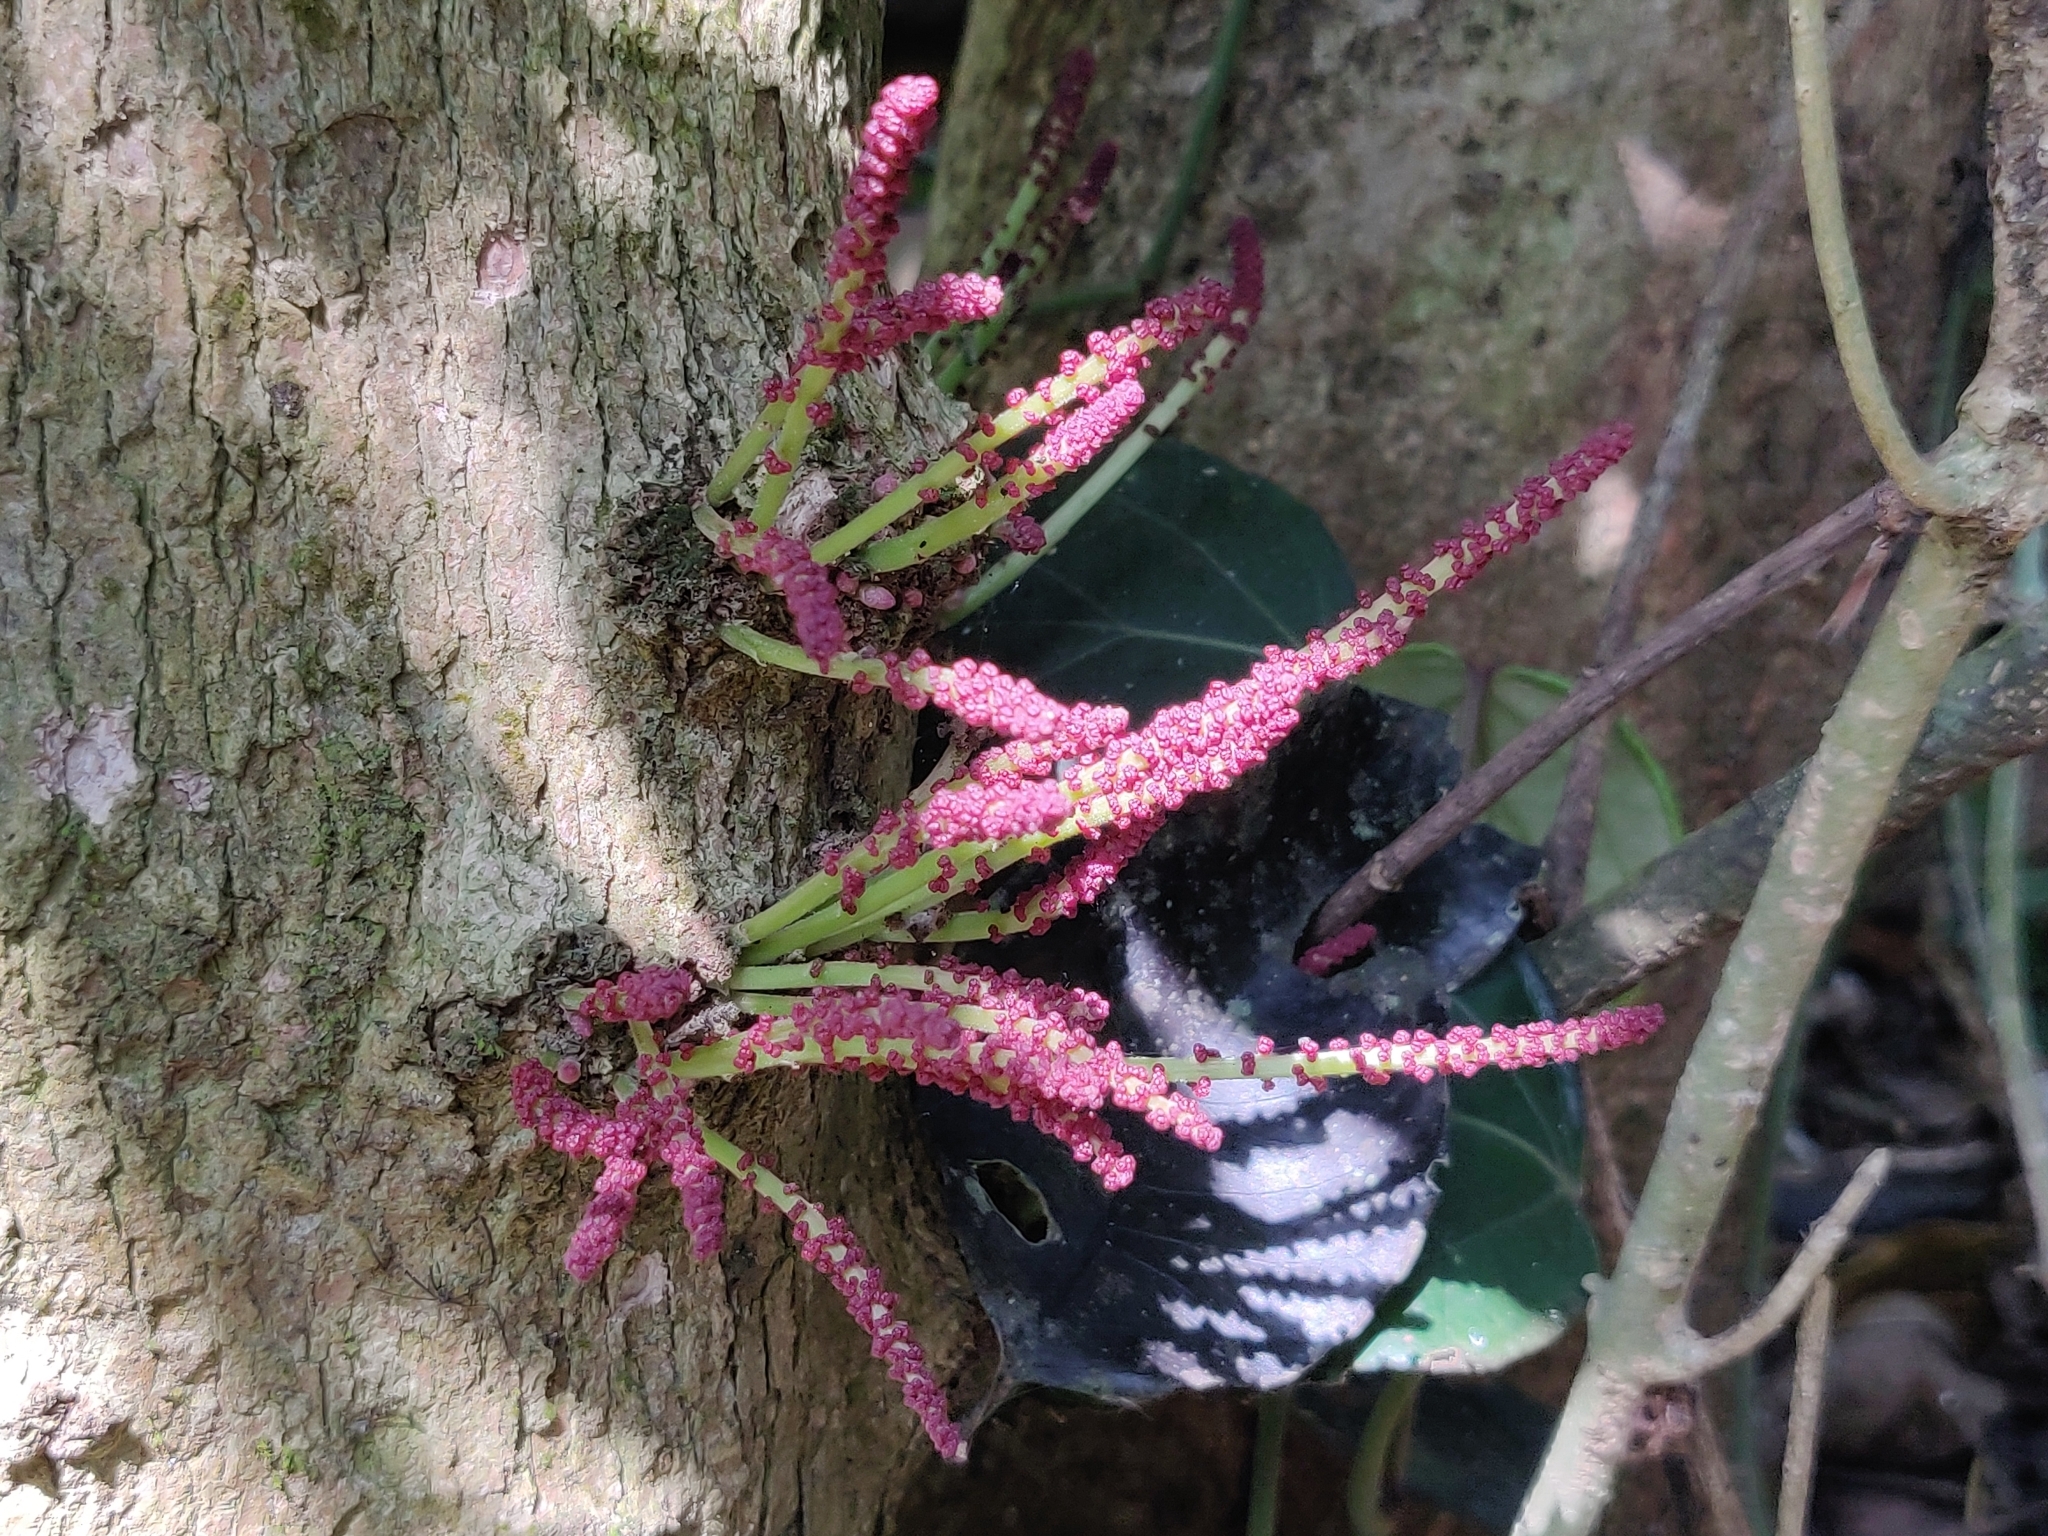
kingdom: Plantae
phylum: Tracheophyta
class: Magnoliopsida
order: Malpighiales
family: Phyllanthaceae
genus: Baccaurea
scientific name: Baccaurea courtallensis
